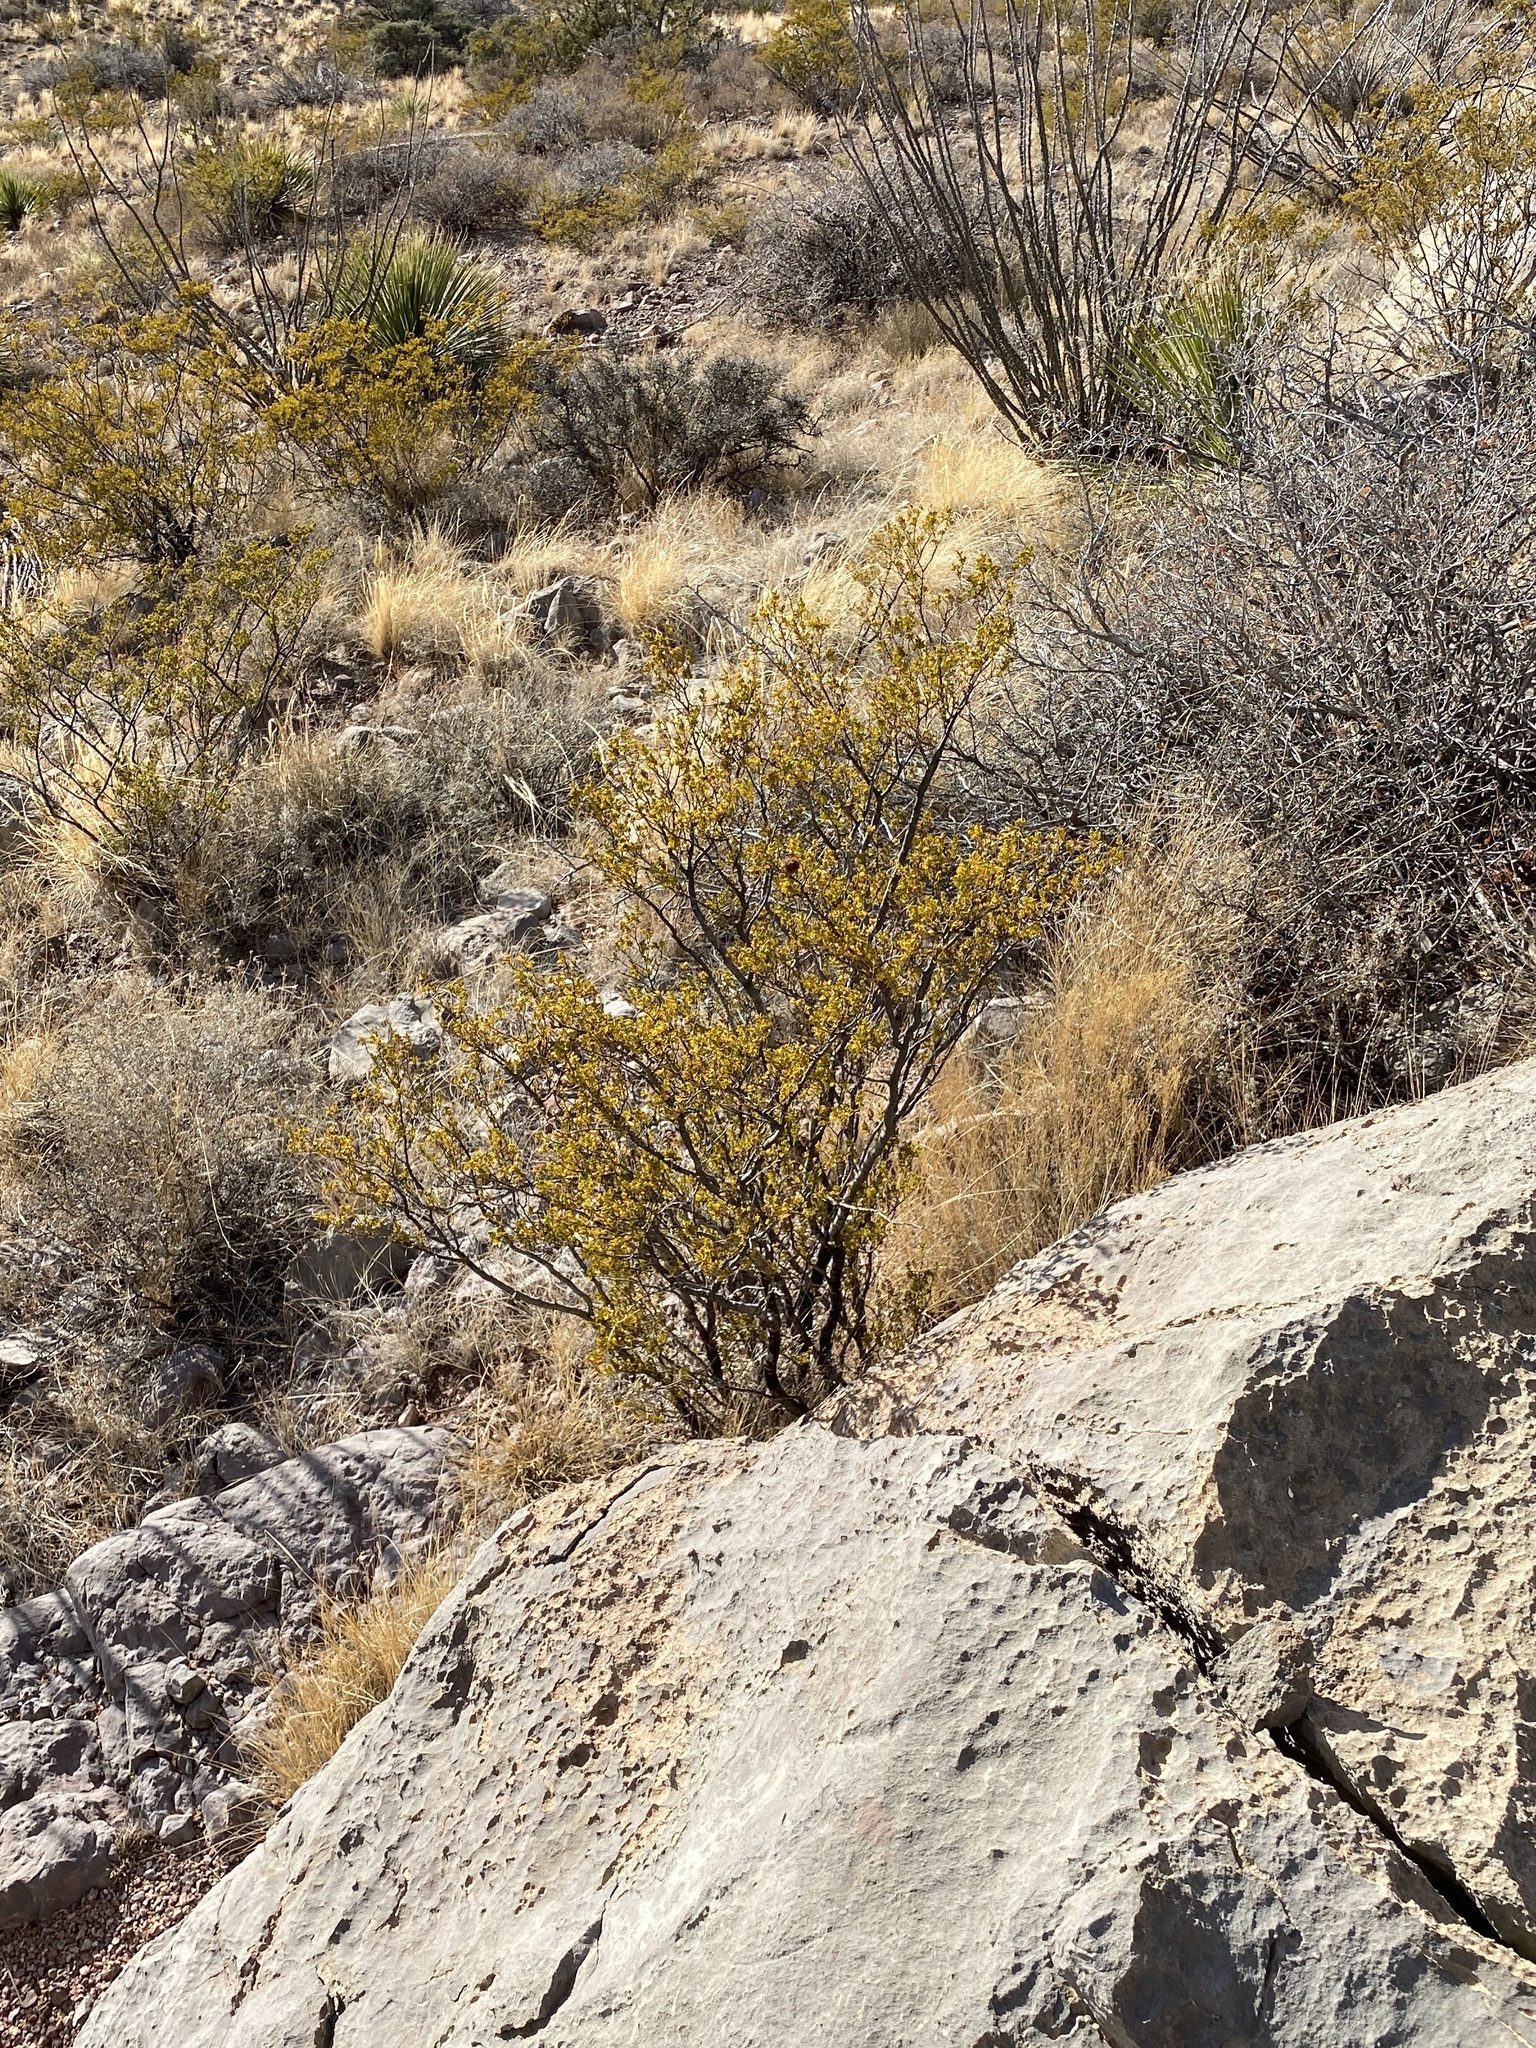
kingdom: Plantae
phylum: Tracheophyta
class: Magnoliopsida
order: Zygophyllales
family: Zygophyllaceae
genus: Larrea
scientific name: Larrea tridentata
